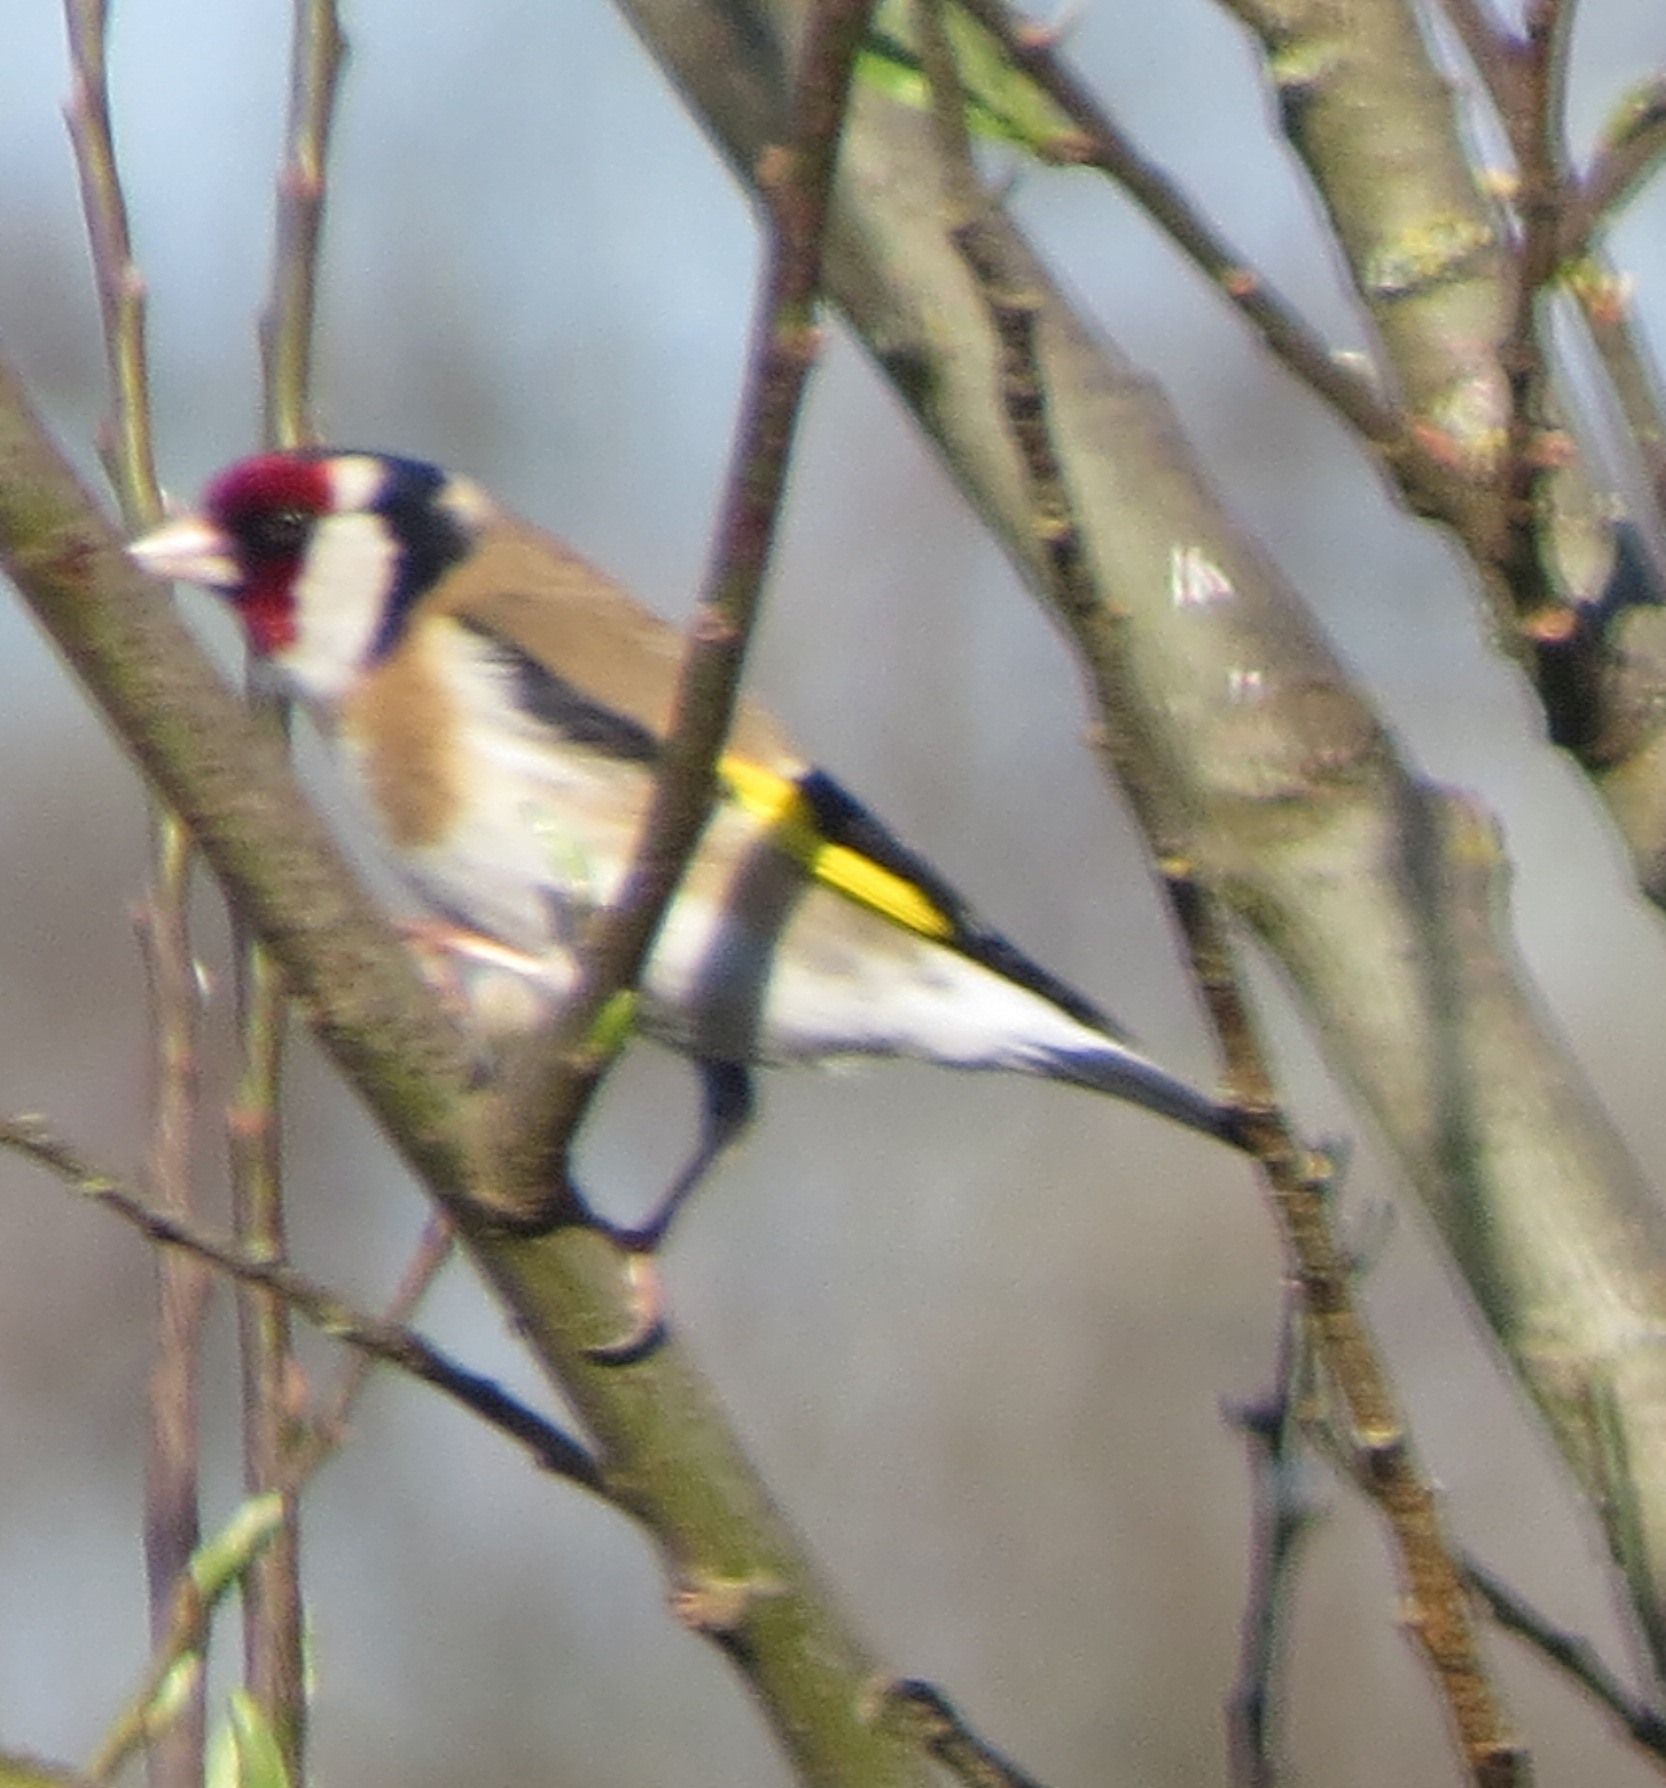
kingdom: Animalia
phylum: Chordata
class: Aves
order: Passeriformes
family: Fringillidae
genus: Carduelis
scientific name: Carduelis carduelis
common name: European goldfinch
